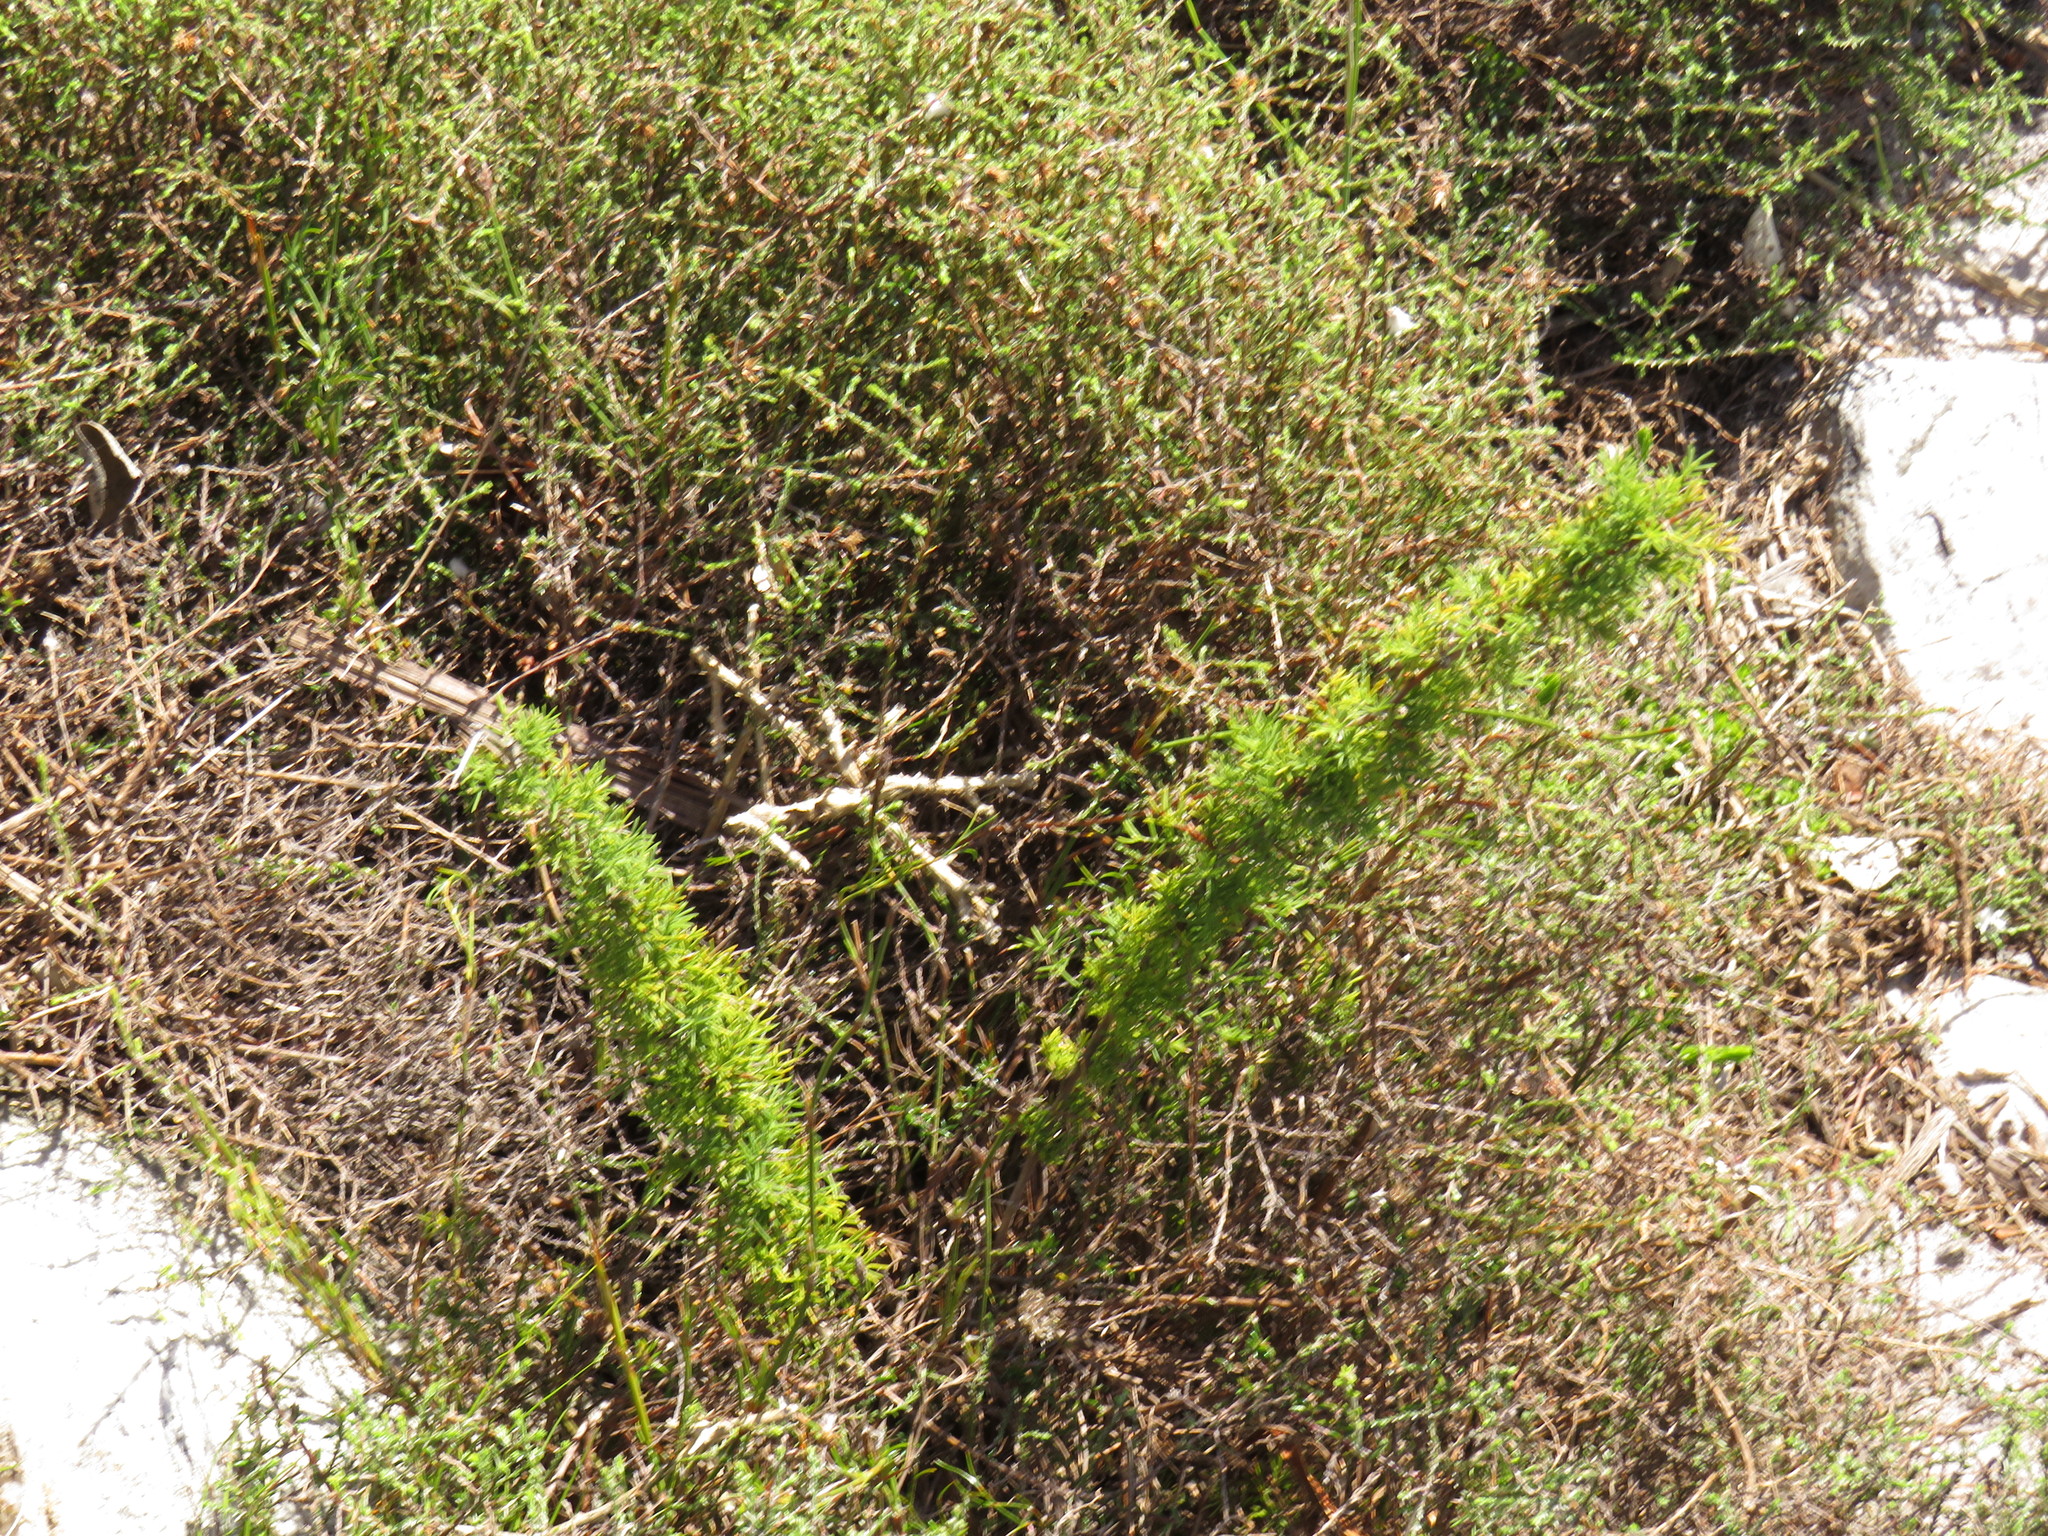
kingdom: Plantae
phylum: Tracheophyta
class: Liliopsida
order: Asparagales
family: Asparagaceae
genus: Asparagus
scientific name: Asparagus stipulaceus
